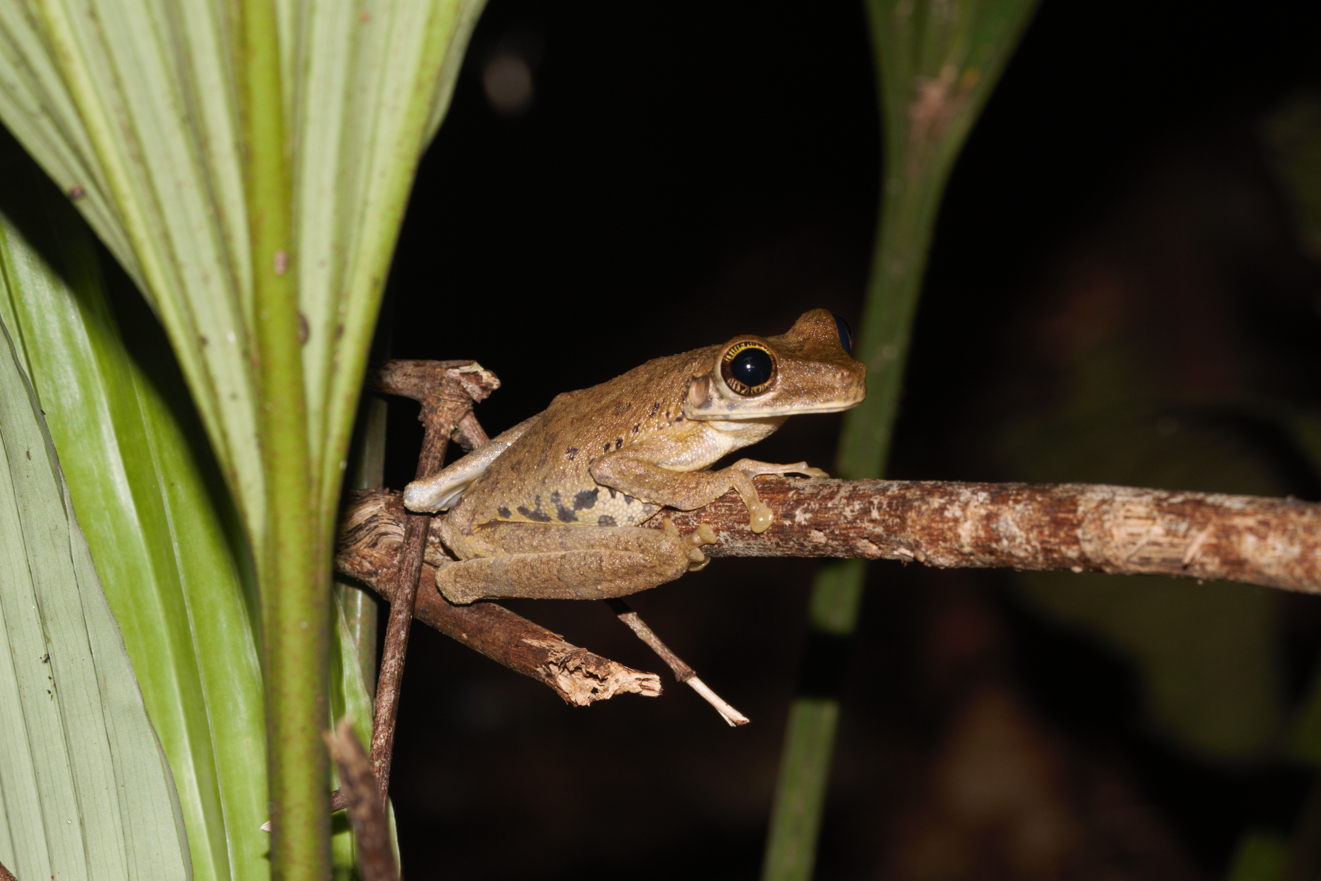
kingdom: Animalia
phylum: Chordata
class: Amphibia
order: Anura
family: Hylidae
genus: Osteocephalus
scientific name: Osteocephalus taurinus
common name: Manaus slender-legged treefrog
